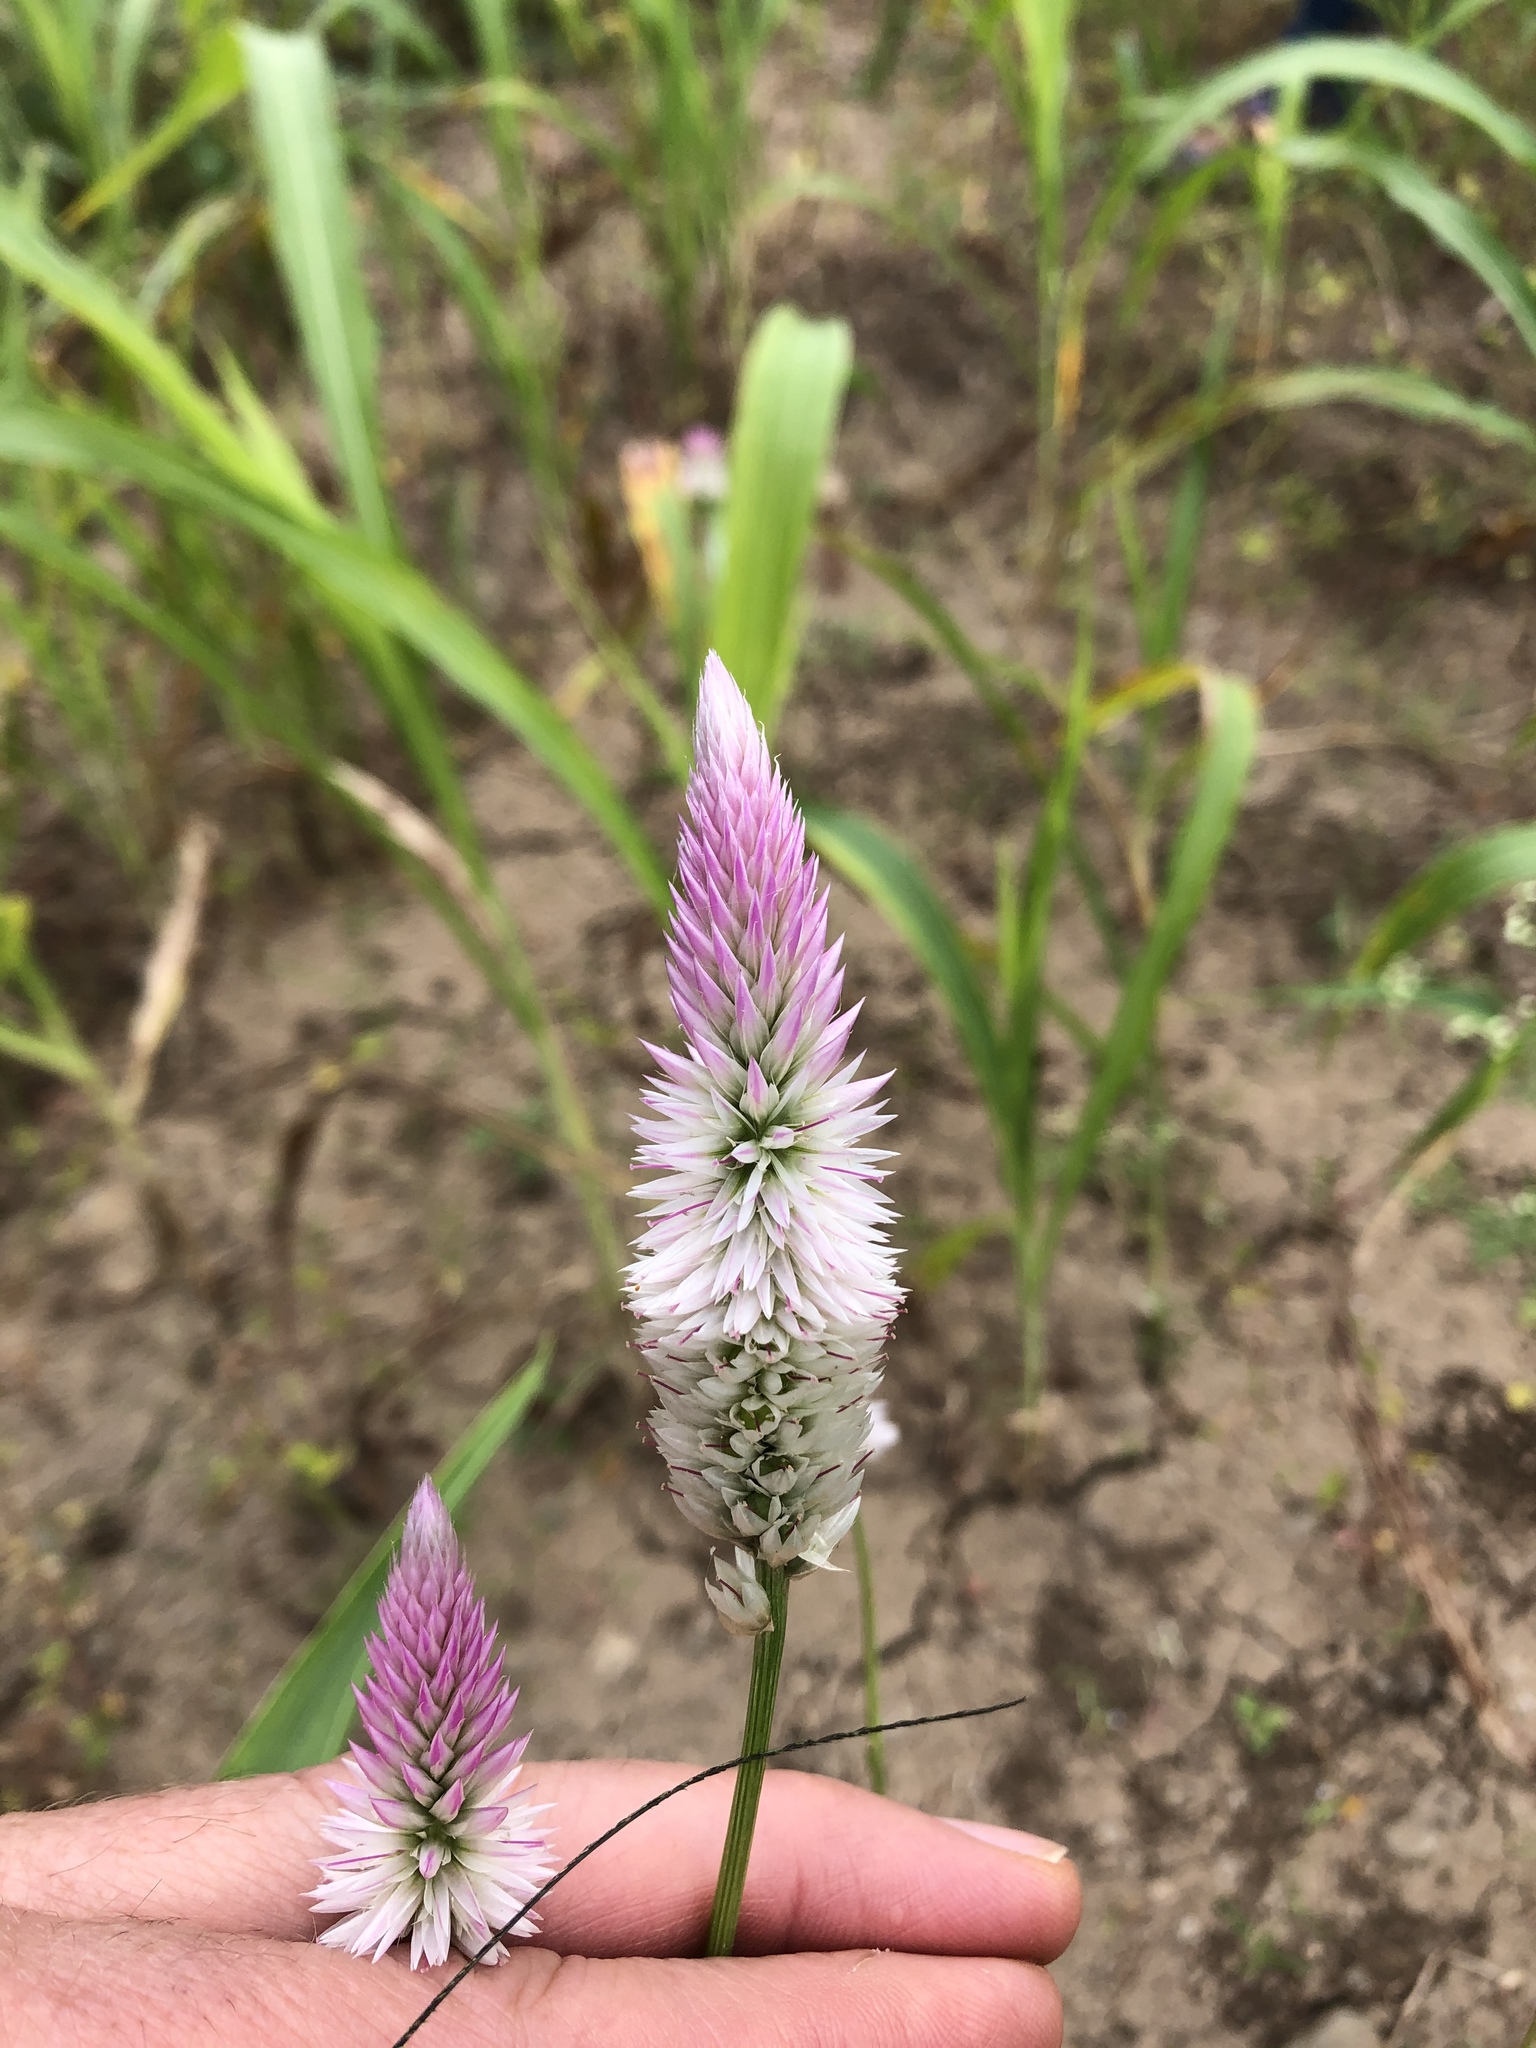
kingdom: Plantae
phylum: Tracheophyta
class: Magnoliopsida
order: Caryophyllales
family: Amaranthaceae
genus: Celosia
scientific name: Celosia spicata
